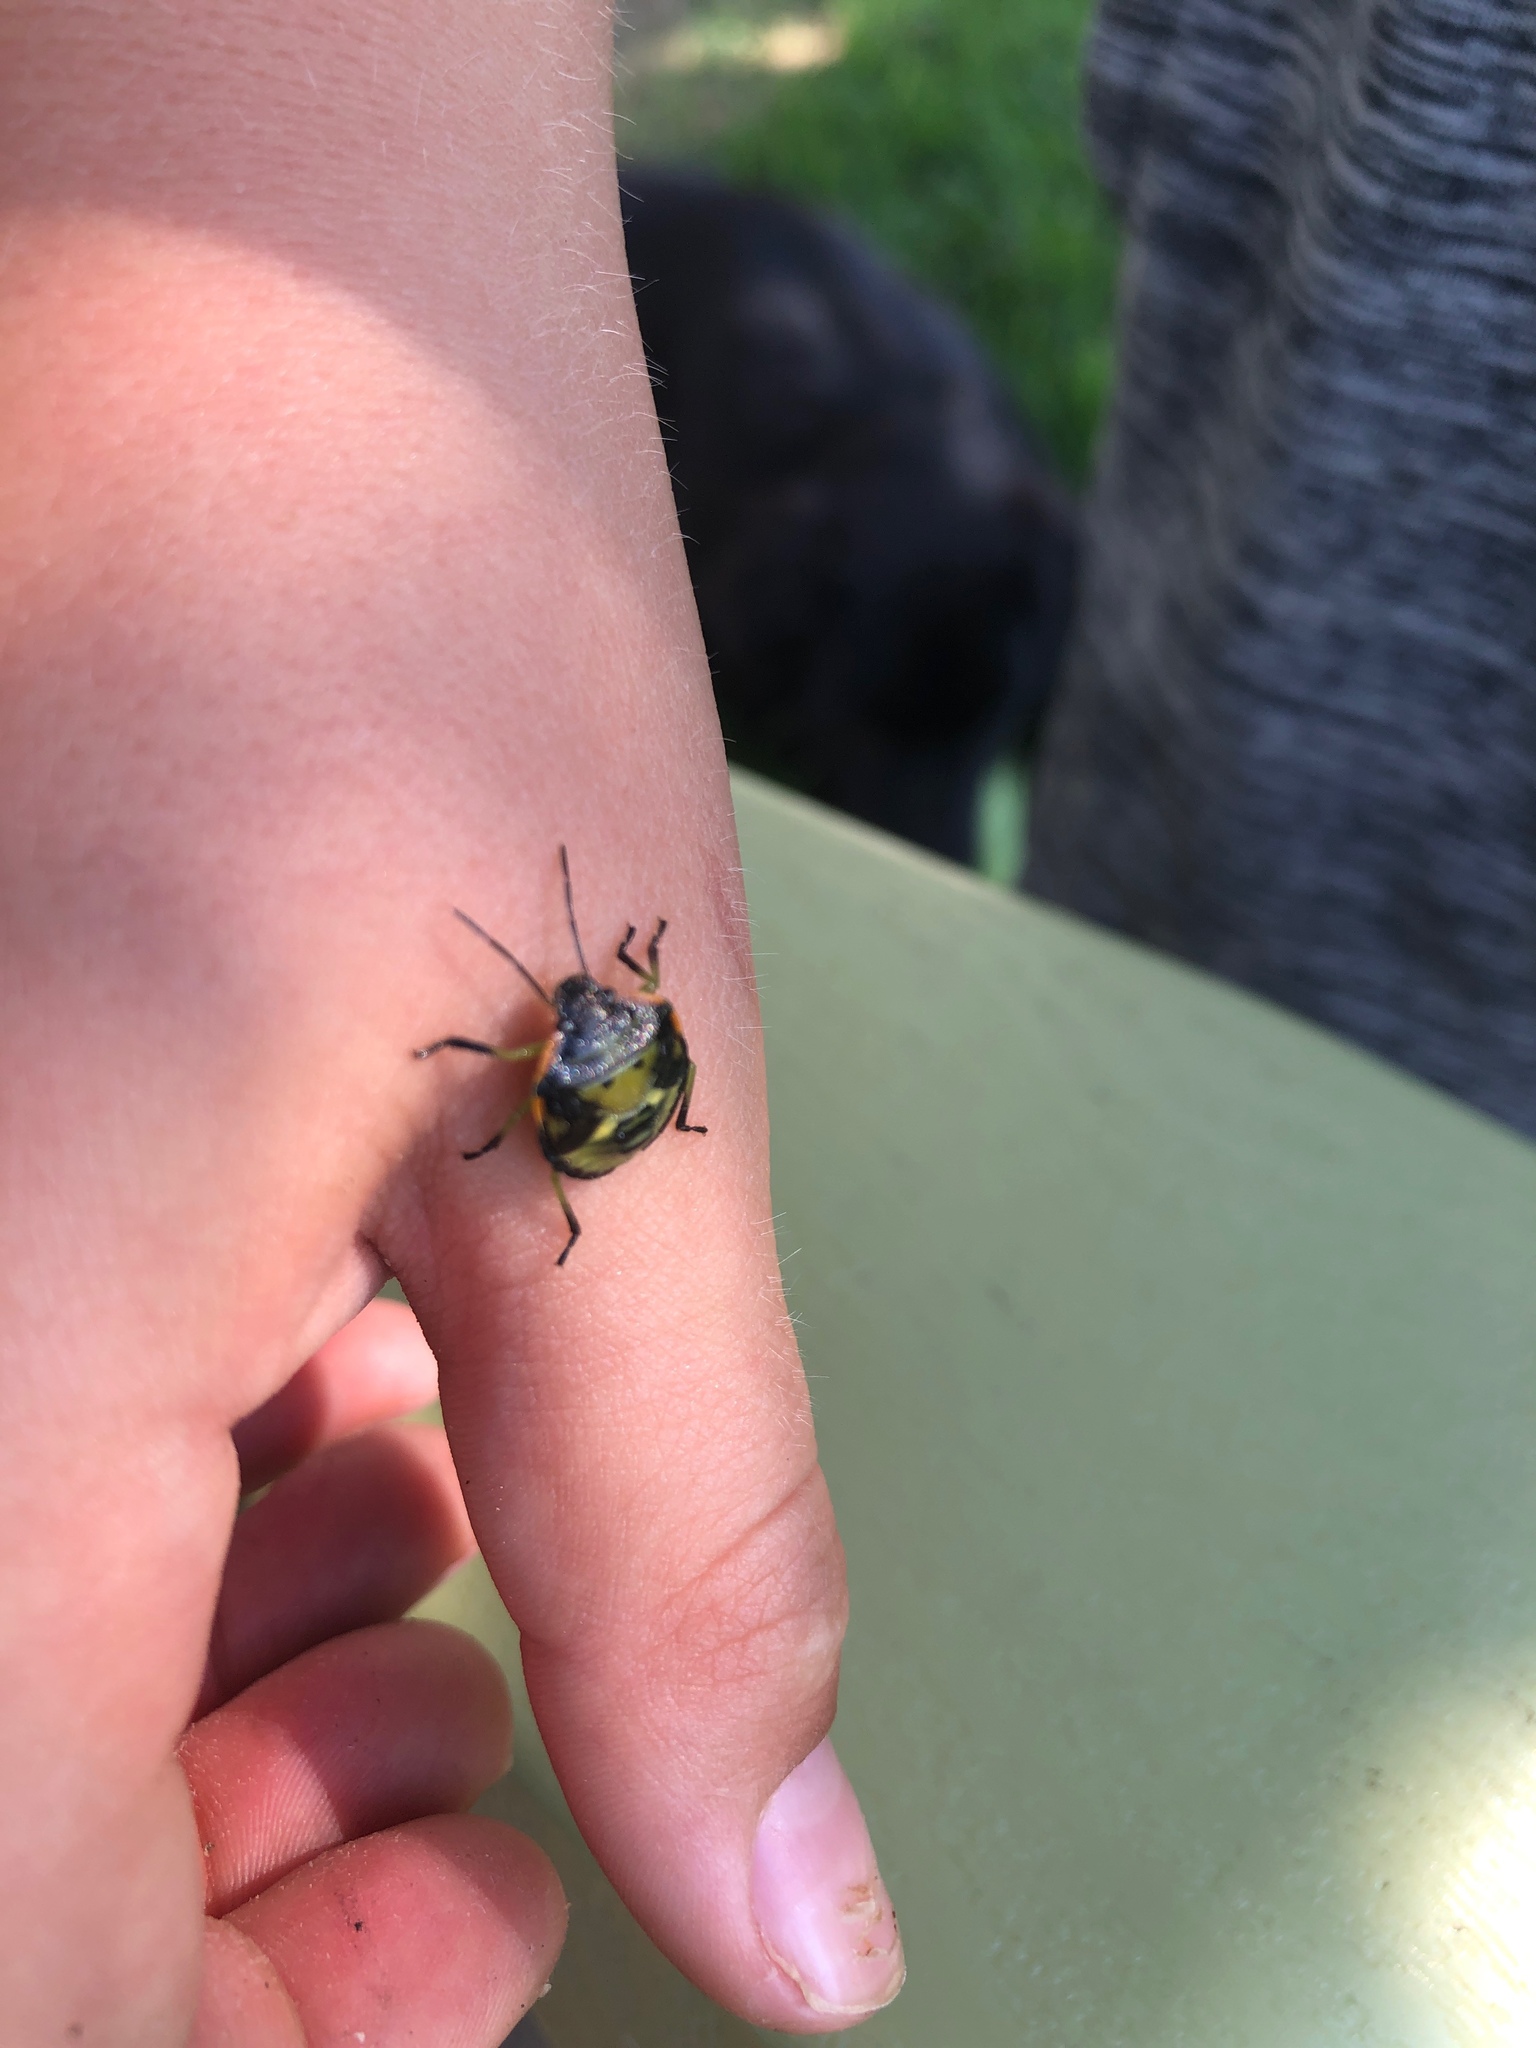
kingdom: Animalia
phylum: Arthropoda
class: Insecta
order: Hemiptera
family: Pentatomidae
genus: Chinavia
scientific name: Chinavia hilaris
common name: Green stink bug
